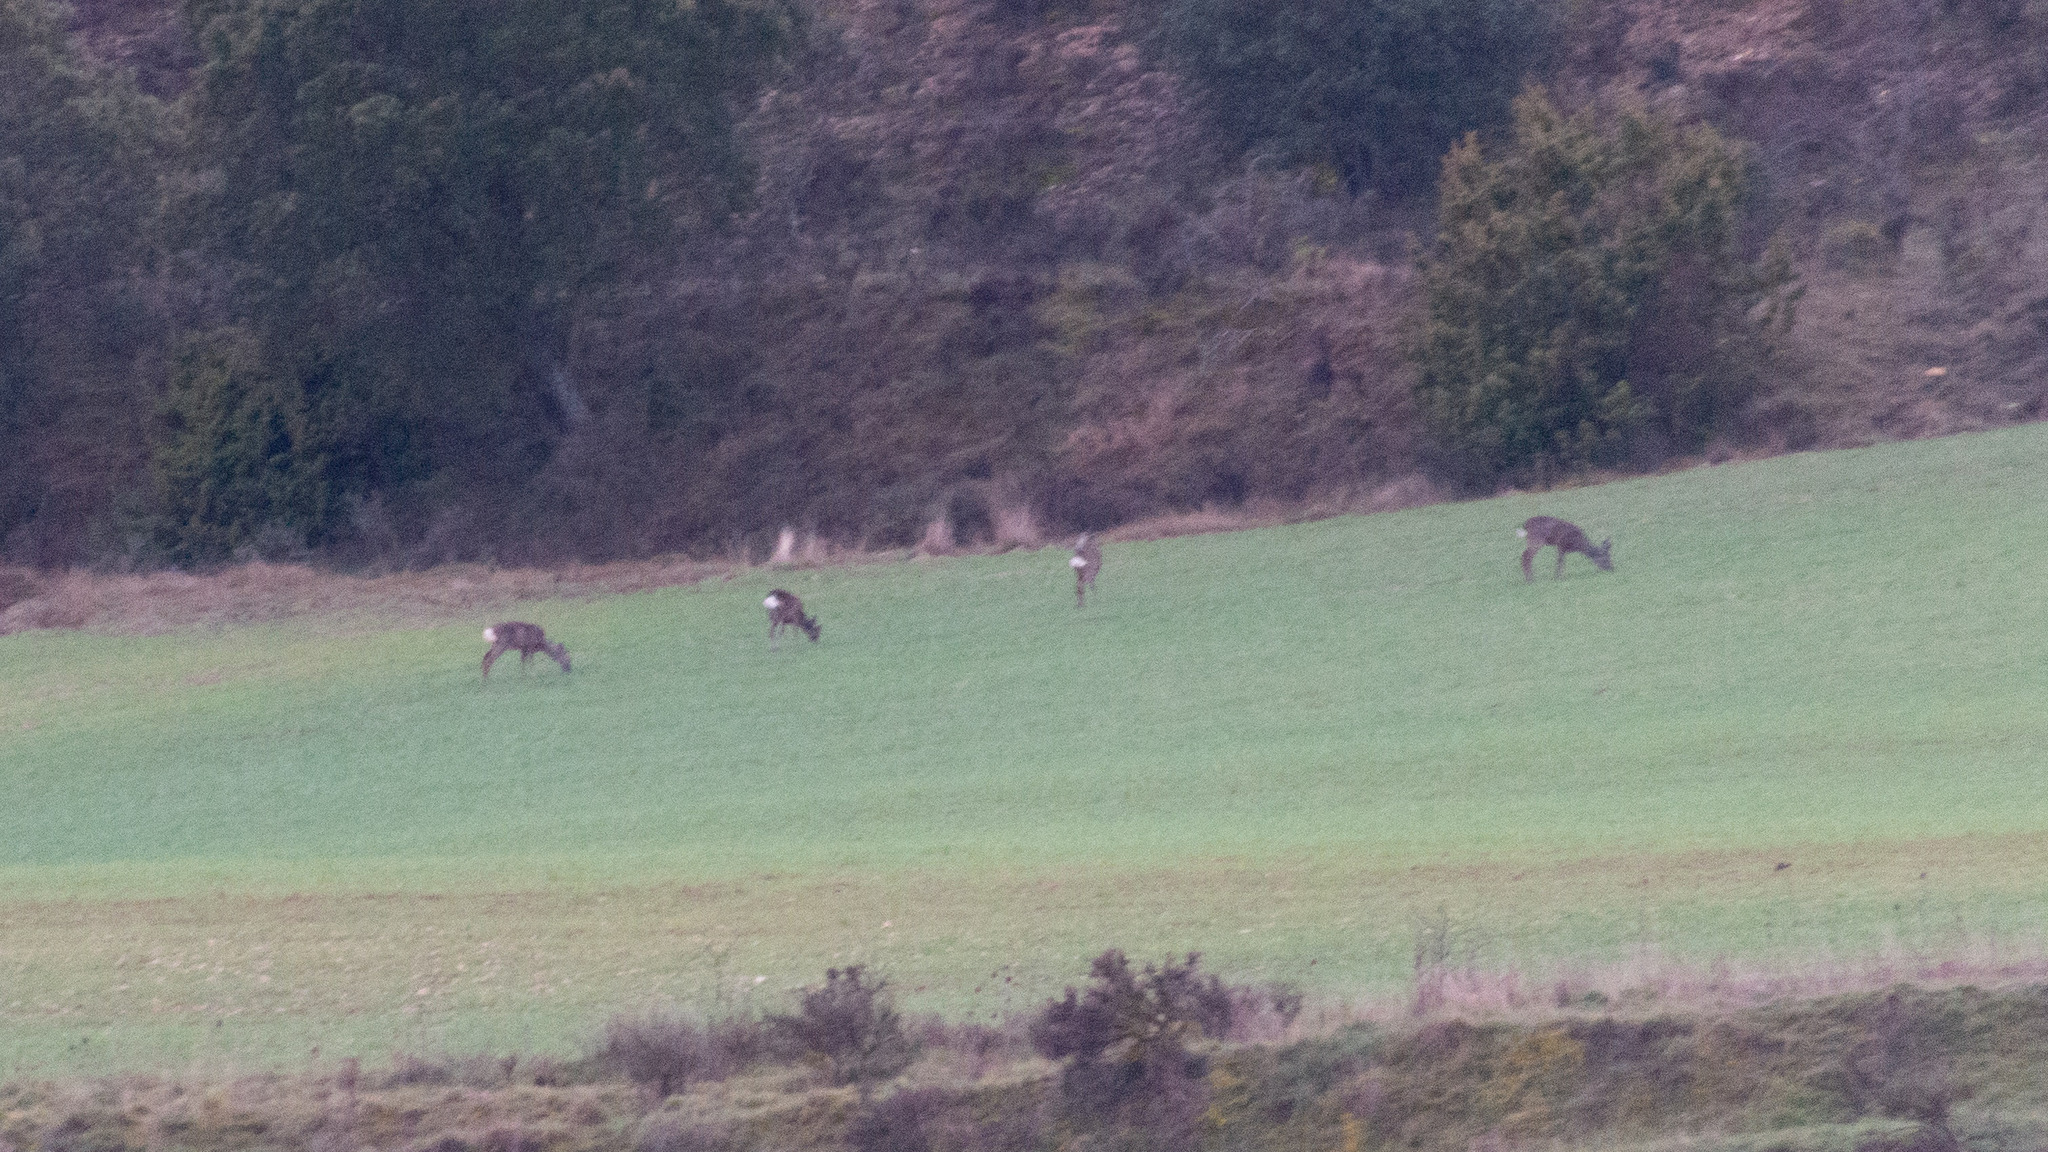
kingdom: Animalia
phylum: Chordata
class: Mammalia
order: Artiodactyla
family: Cervidae
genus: Capreolus
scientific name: Capreolus capreolus
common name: Western roe deer
